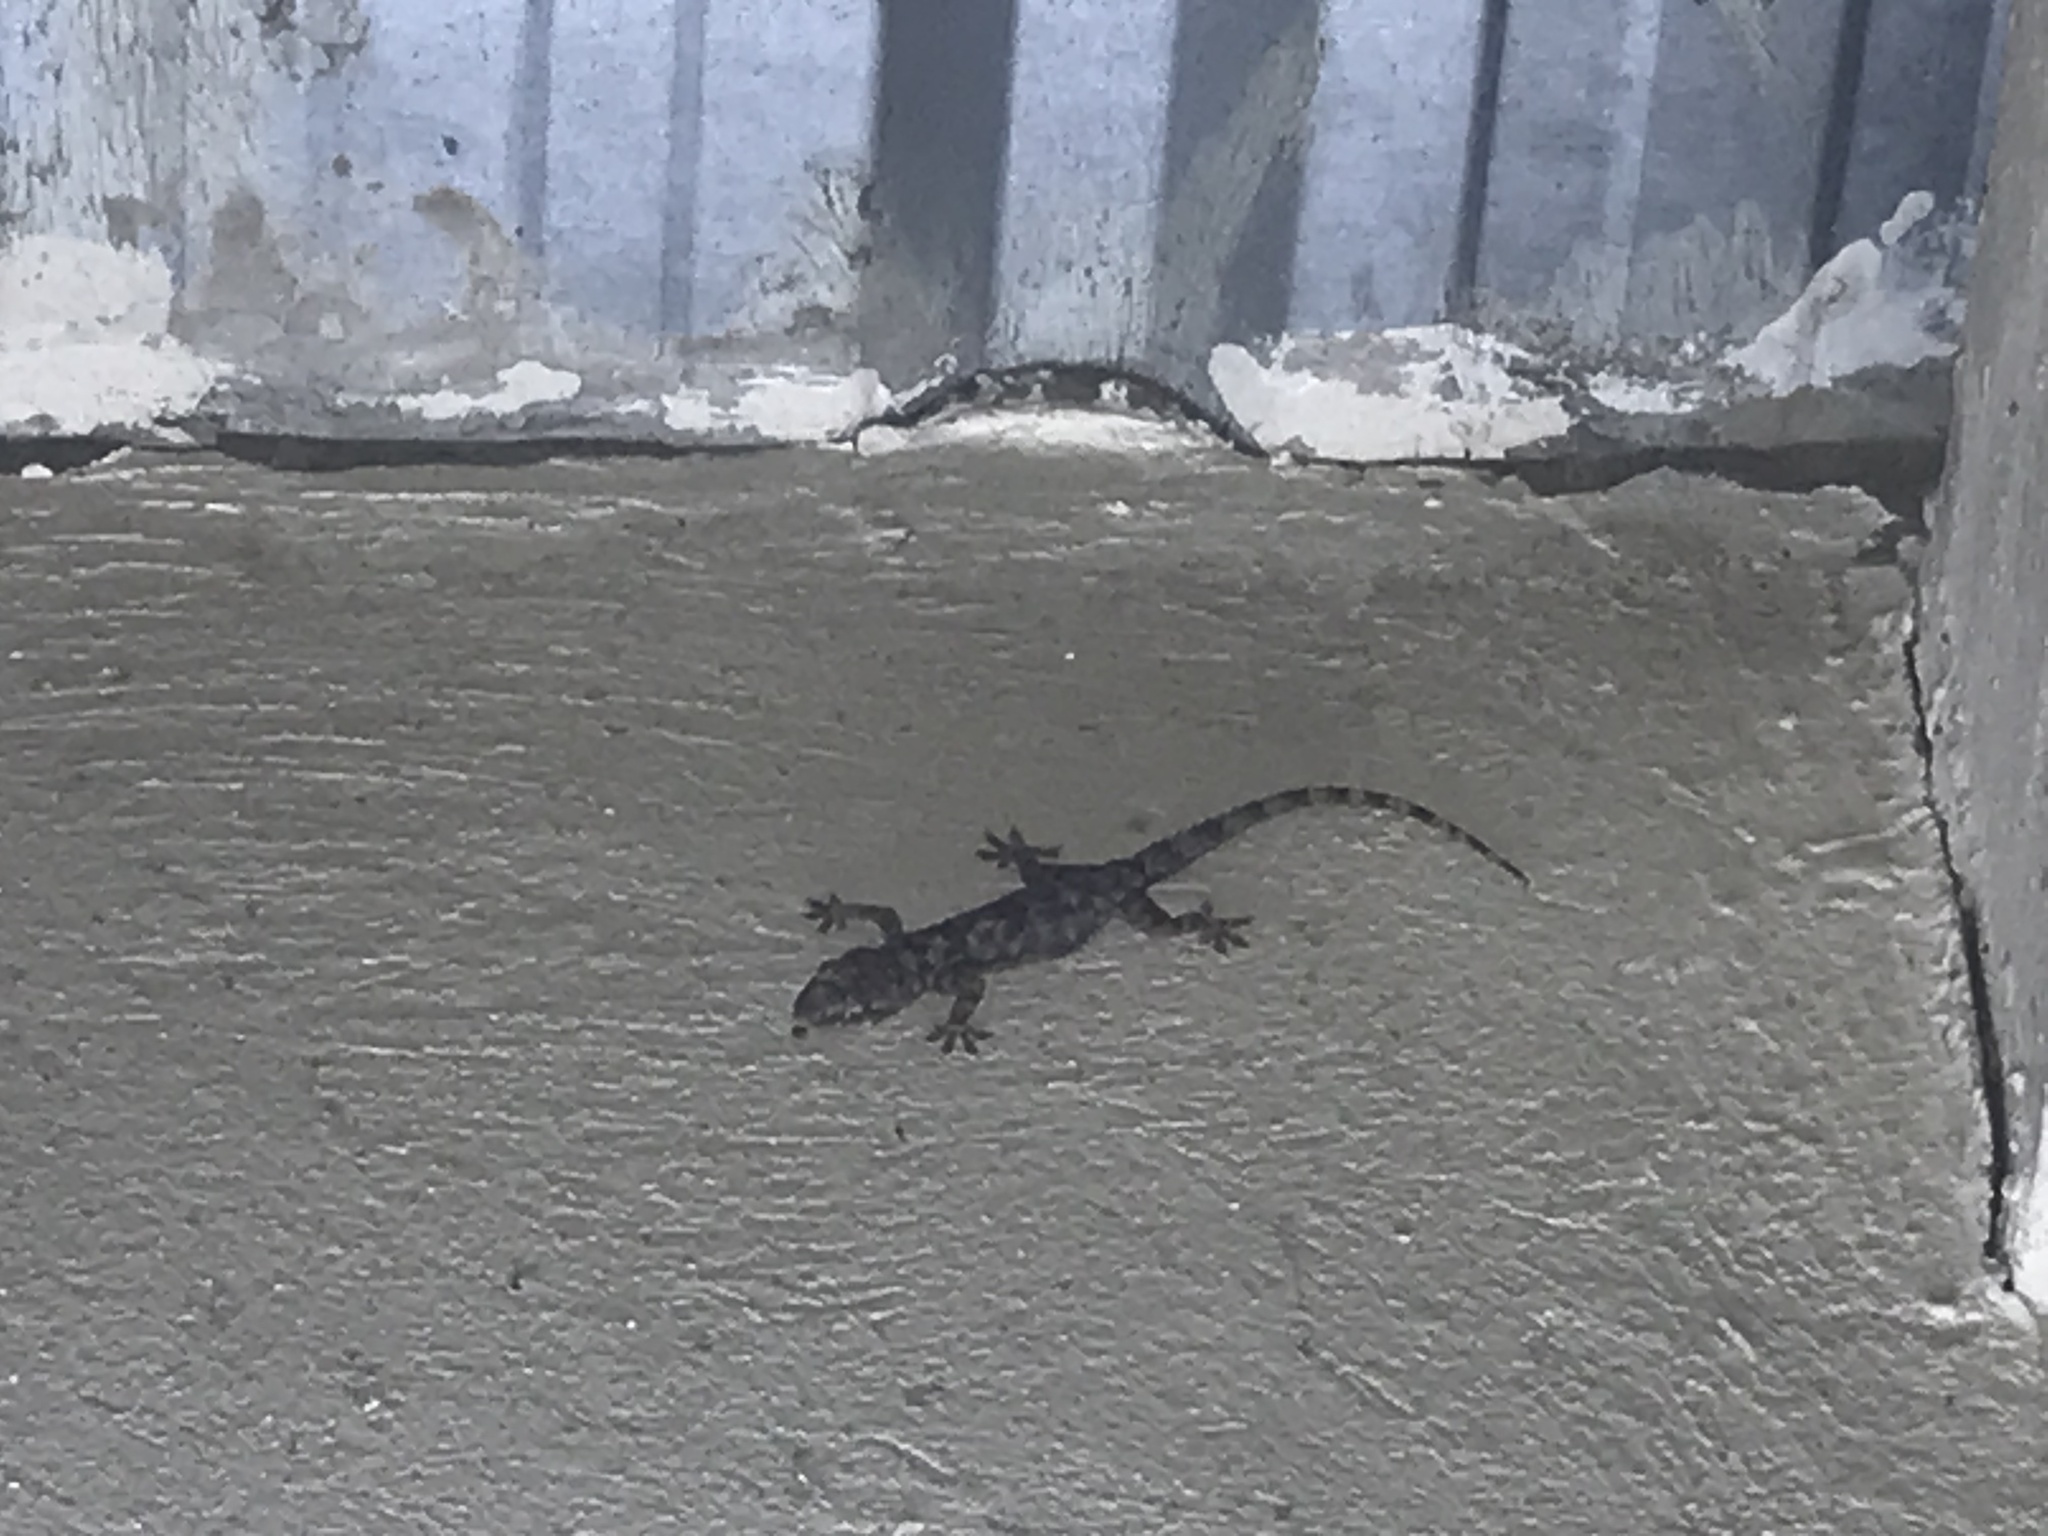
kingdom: Animalia
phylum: Chordata
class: Squamata
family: Gekkonidae
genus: Hemidactylus
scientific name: Hemidactylus mabouia
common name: House gecko
